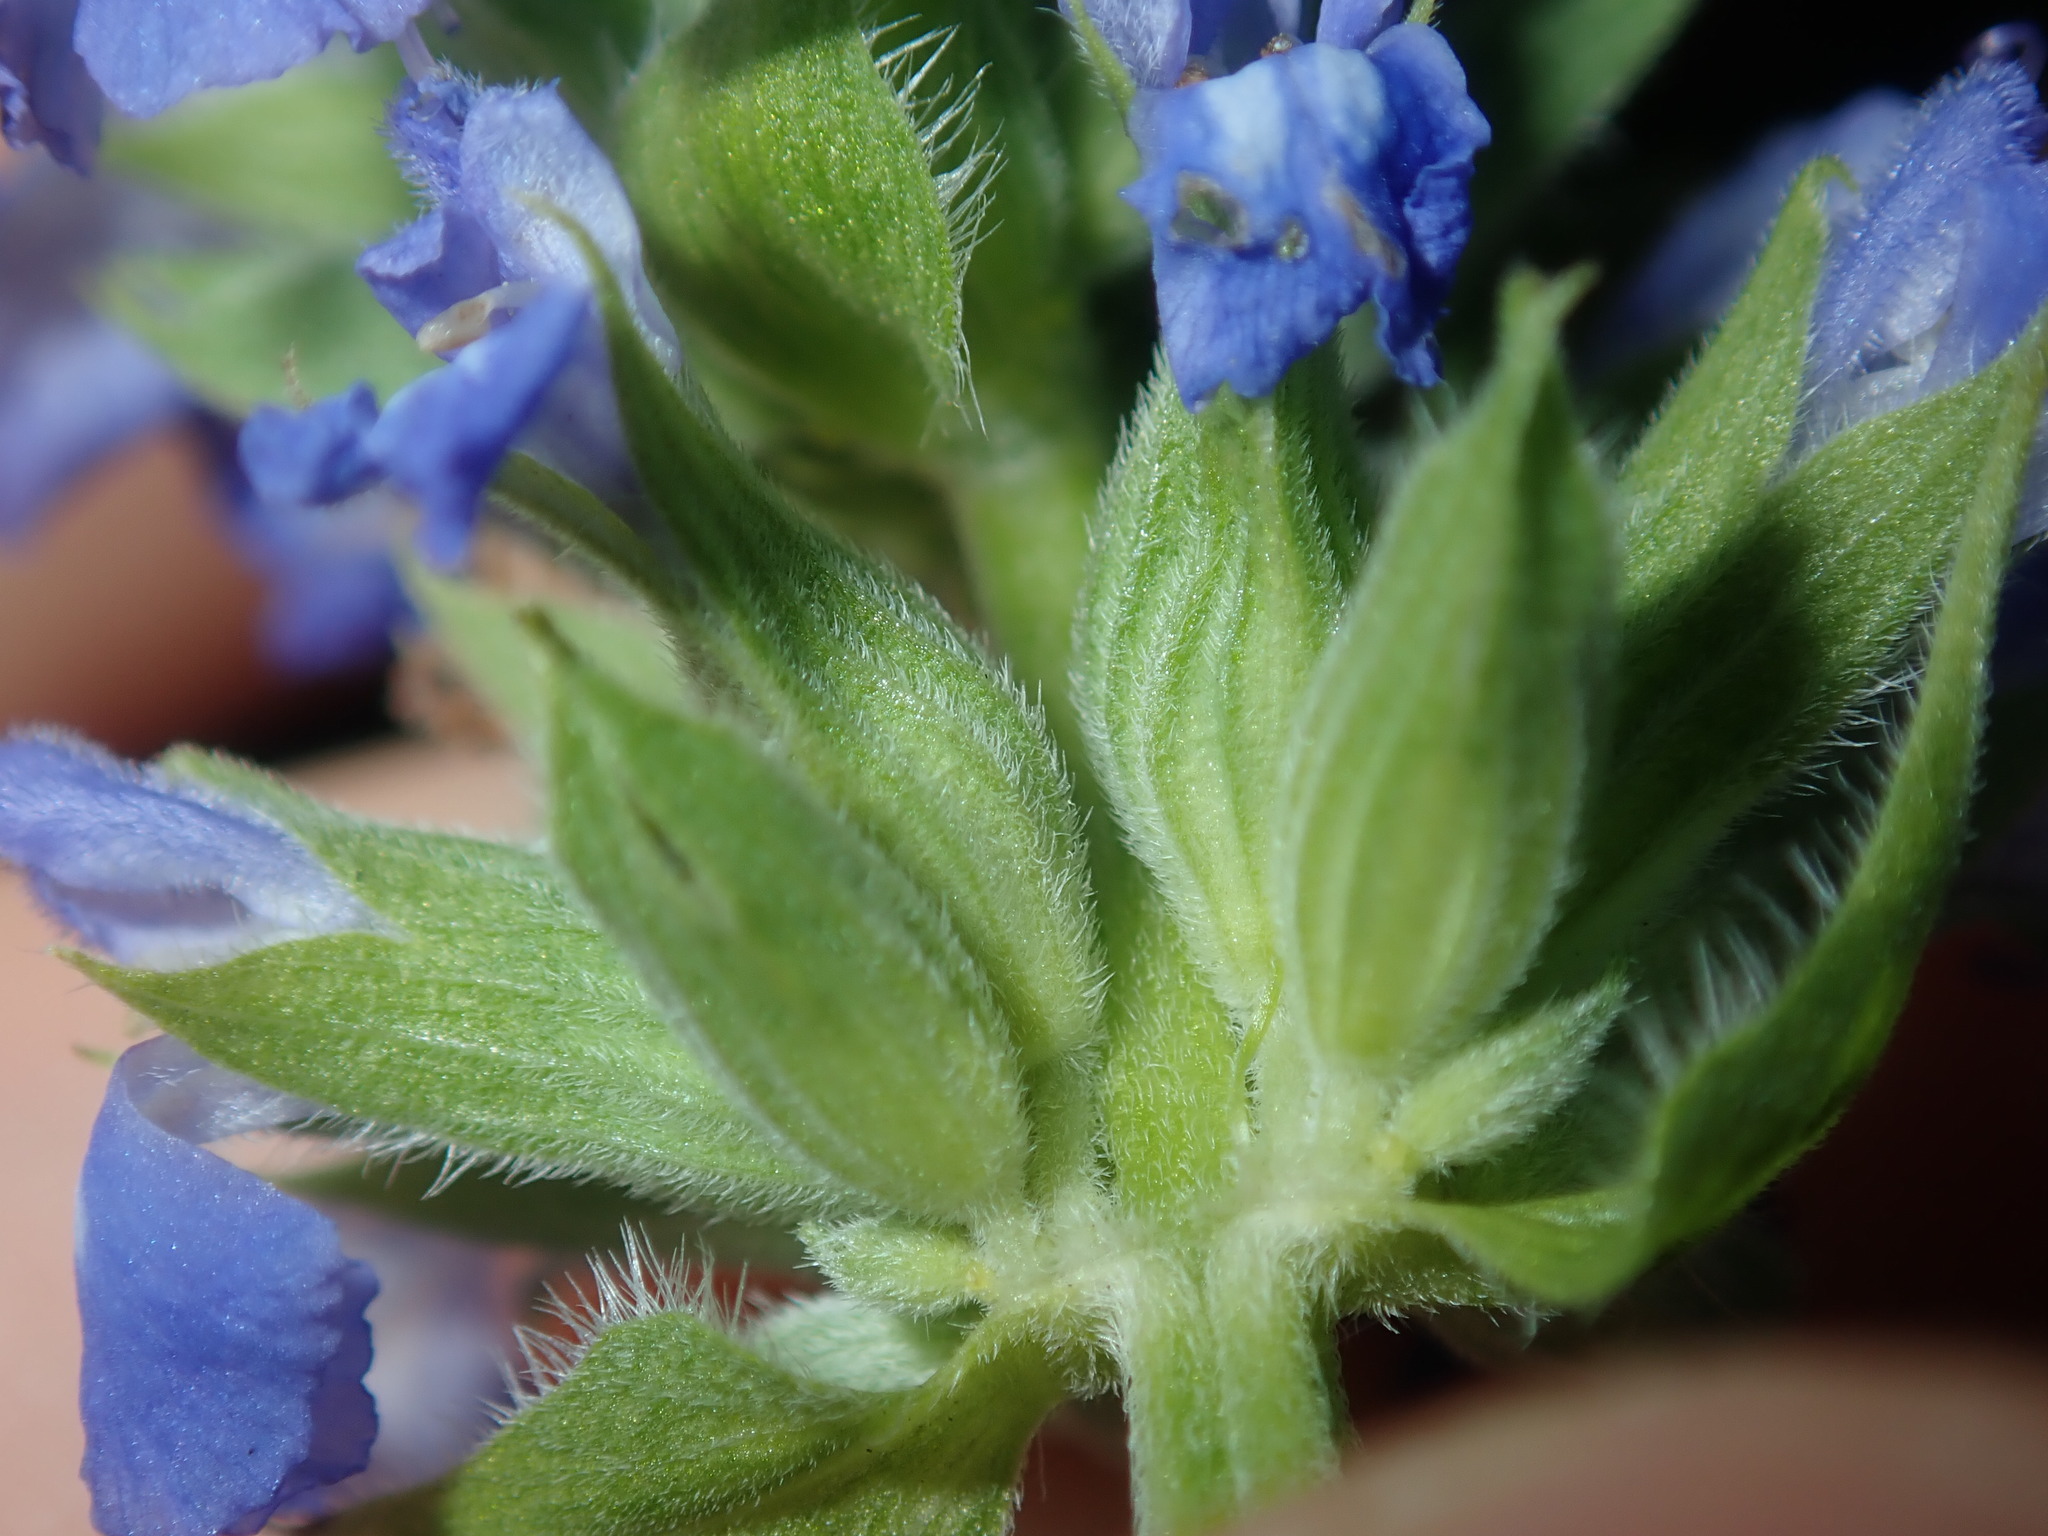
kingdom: Plantae
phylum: Tracheophyta
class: Magnoliopsida
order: Lamiales
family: Lamiaceae
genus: Salvia
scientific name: Salvia hispanica
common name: Chia
